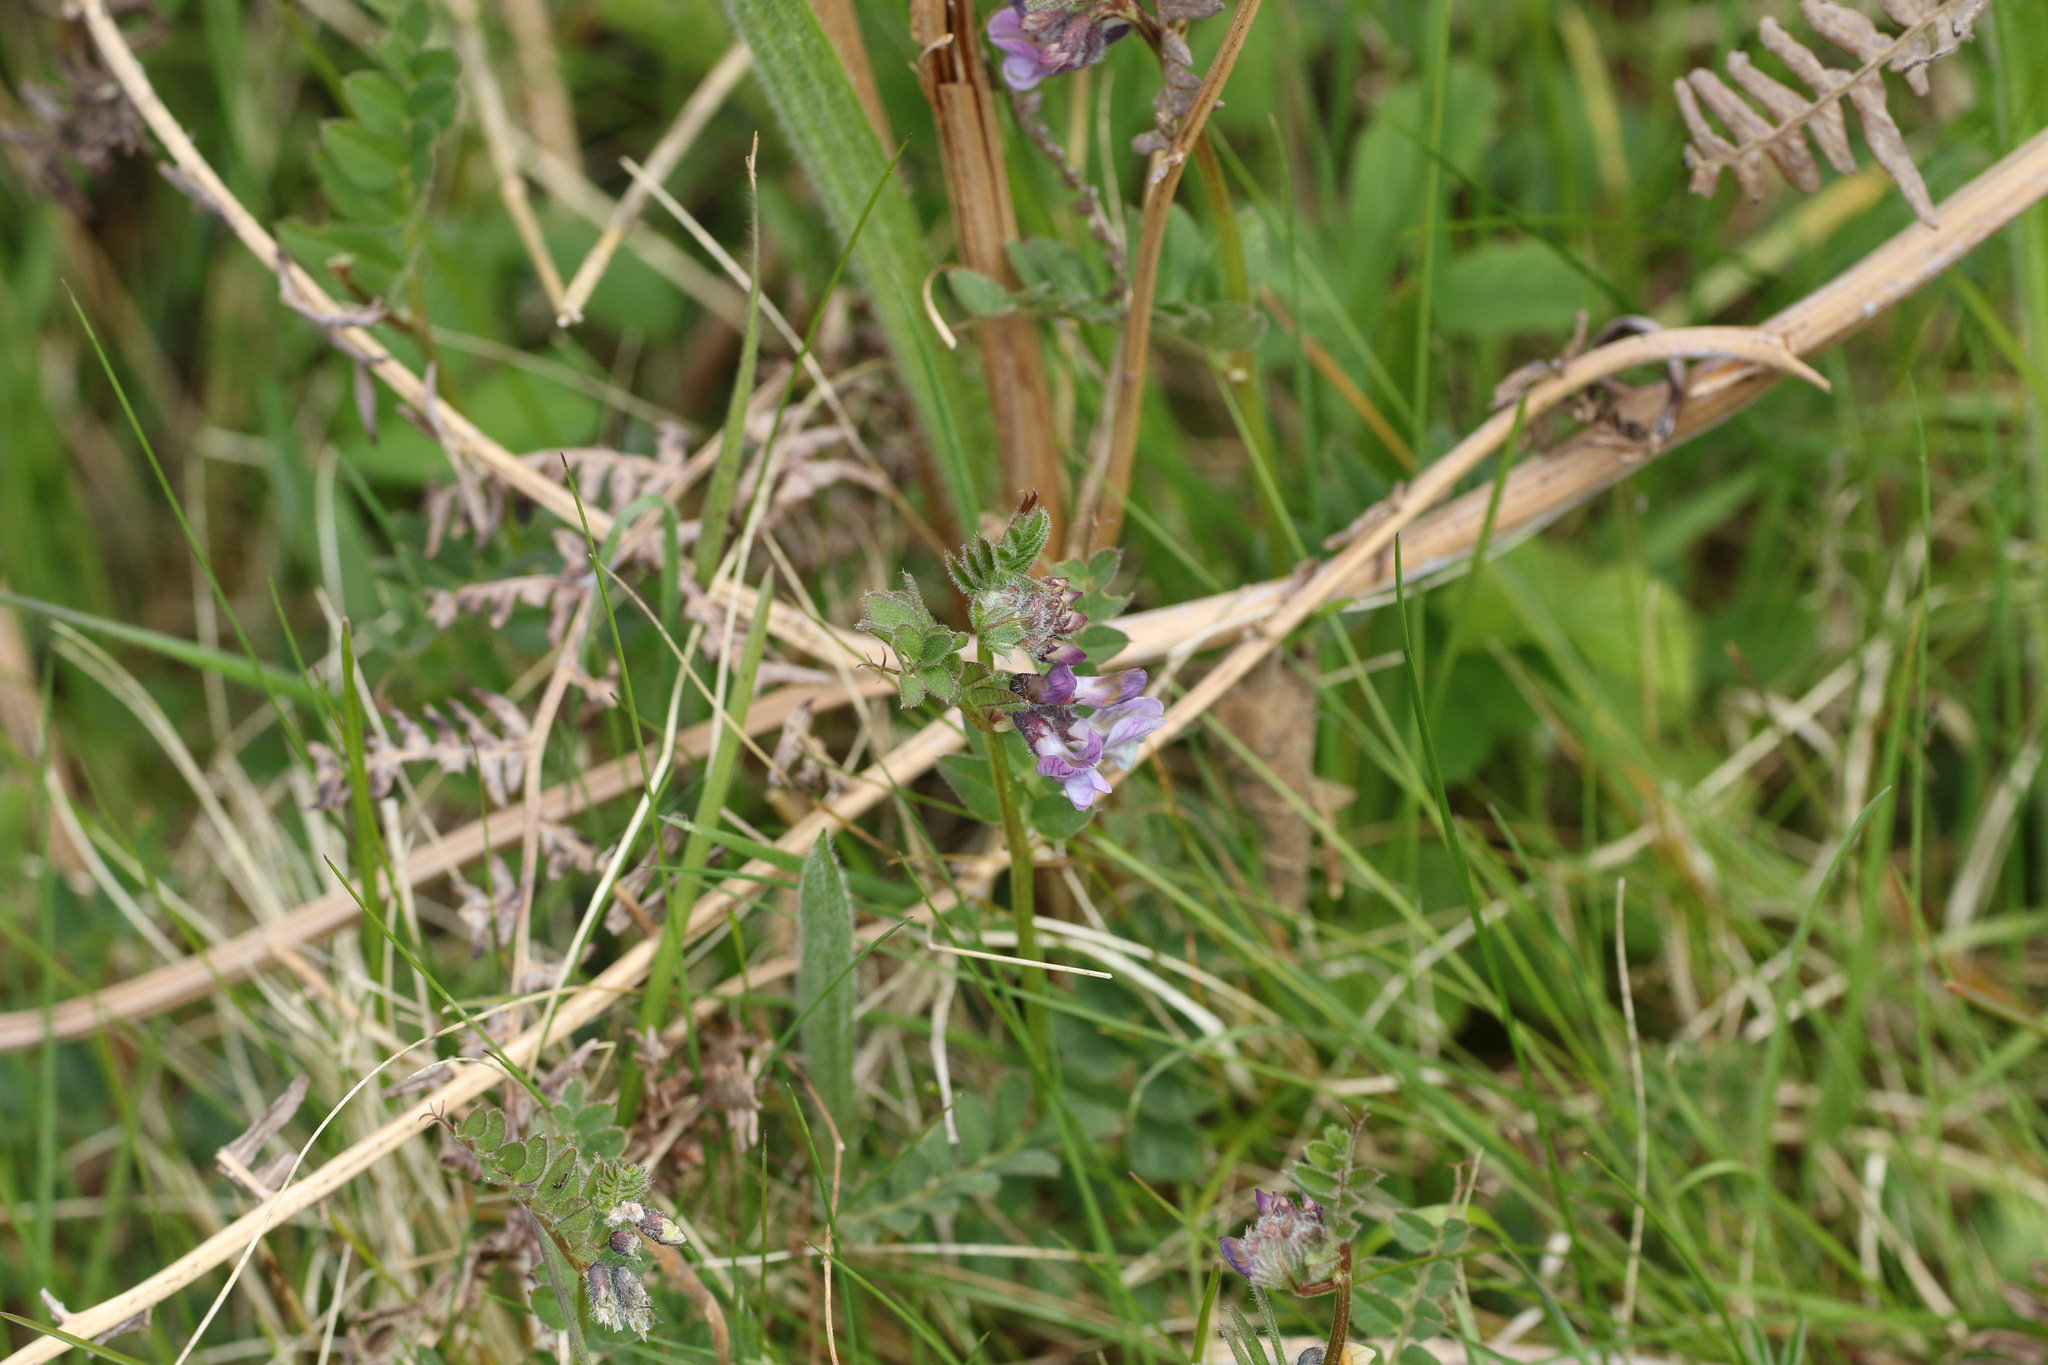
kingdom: Plantae
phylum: Tracheophyta
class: Magnoliopsida
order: Fabales
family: Fabaceae
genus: Vicia
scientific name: Vicia sepium
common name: Bush vetch
